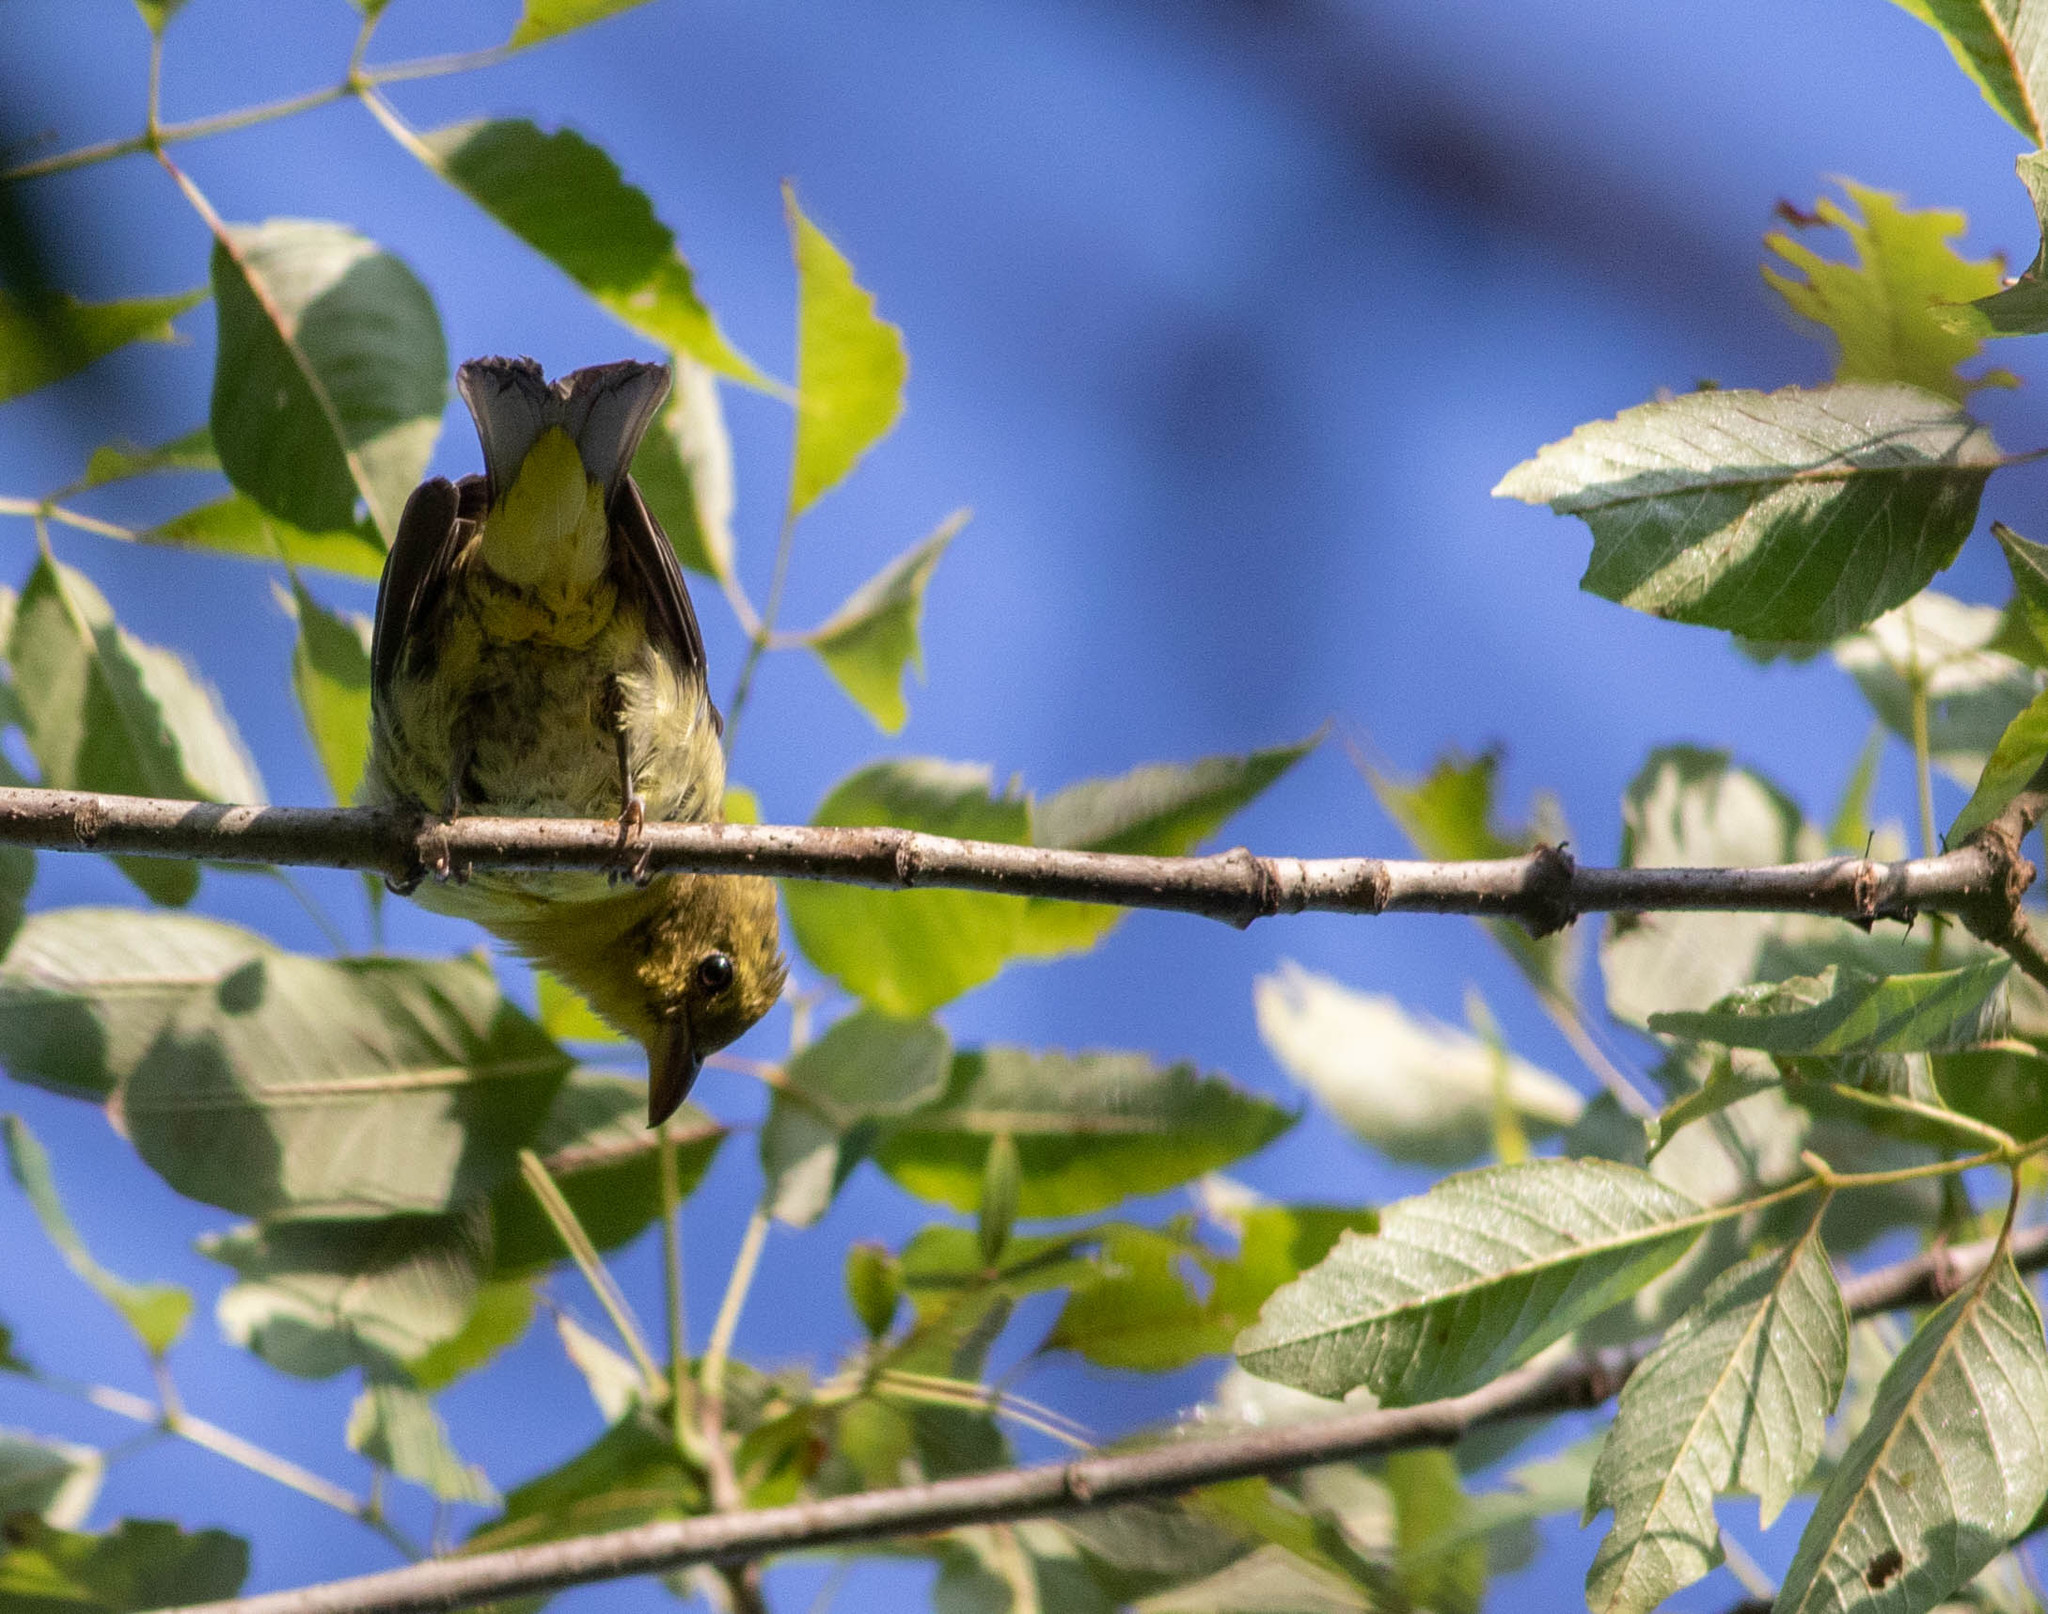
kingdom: Animalia
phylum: Chordata
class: Aves
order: Passeriformes
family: Cardinalidae
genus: Piranga
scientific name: Piranga olivacea
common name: Scarlet tanager
